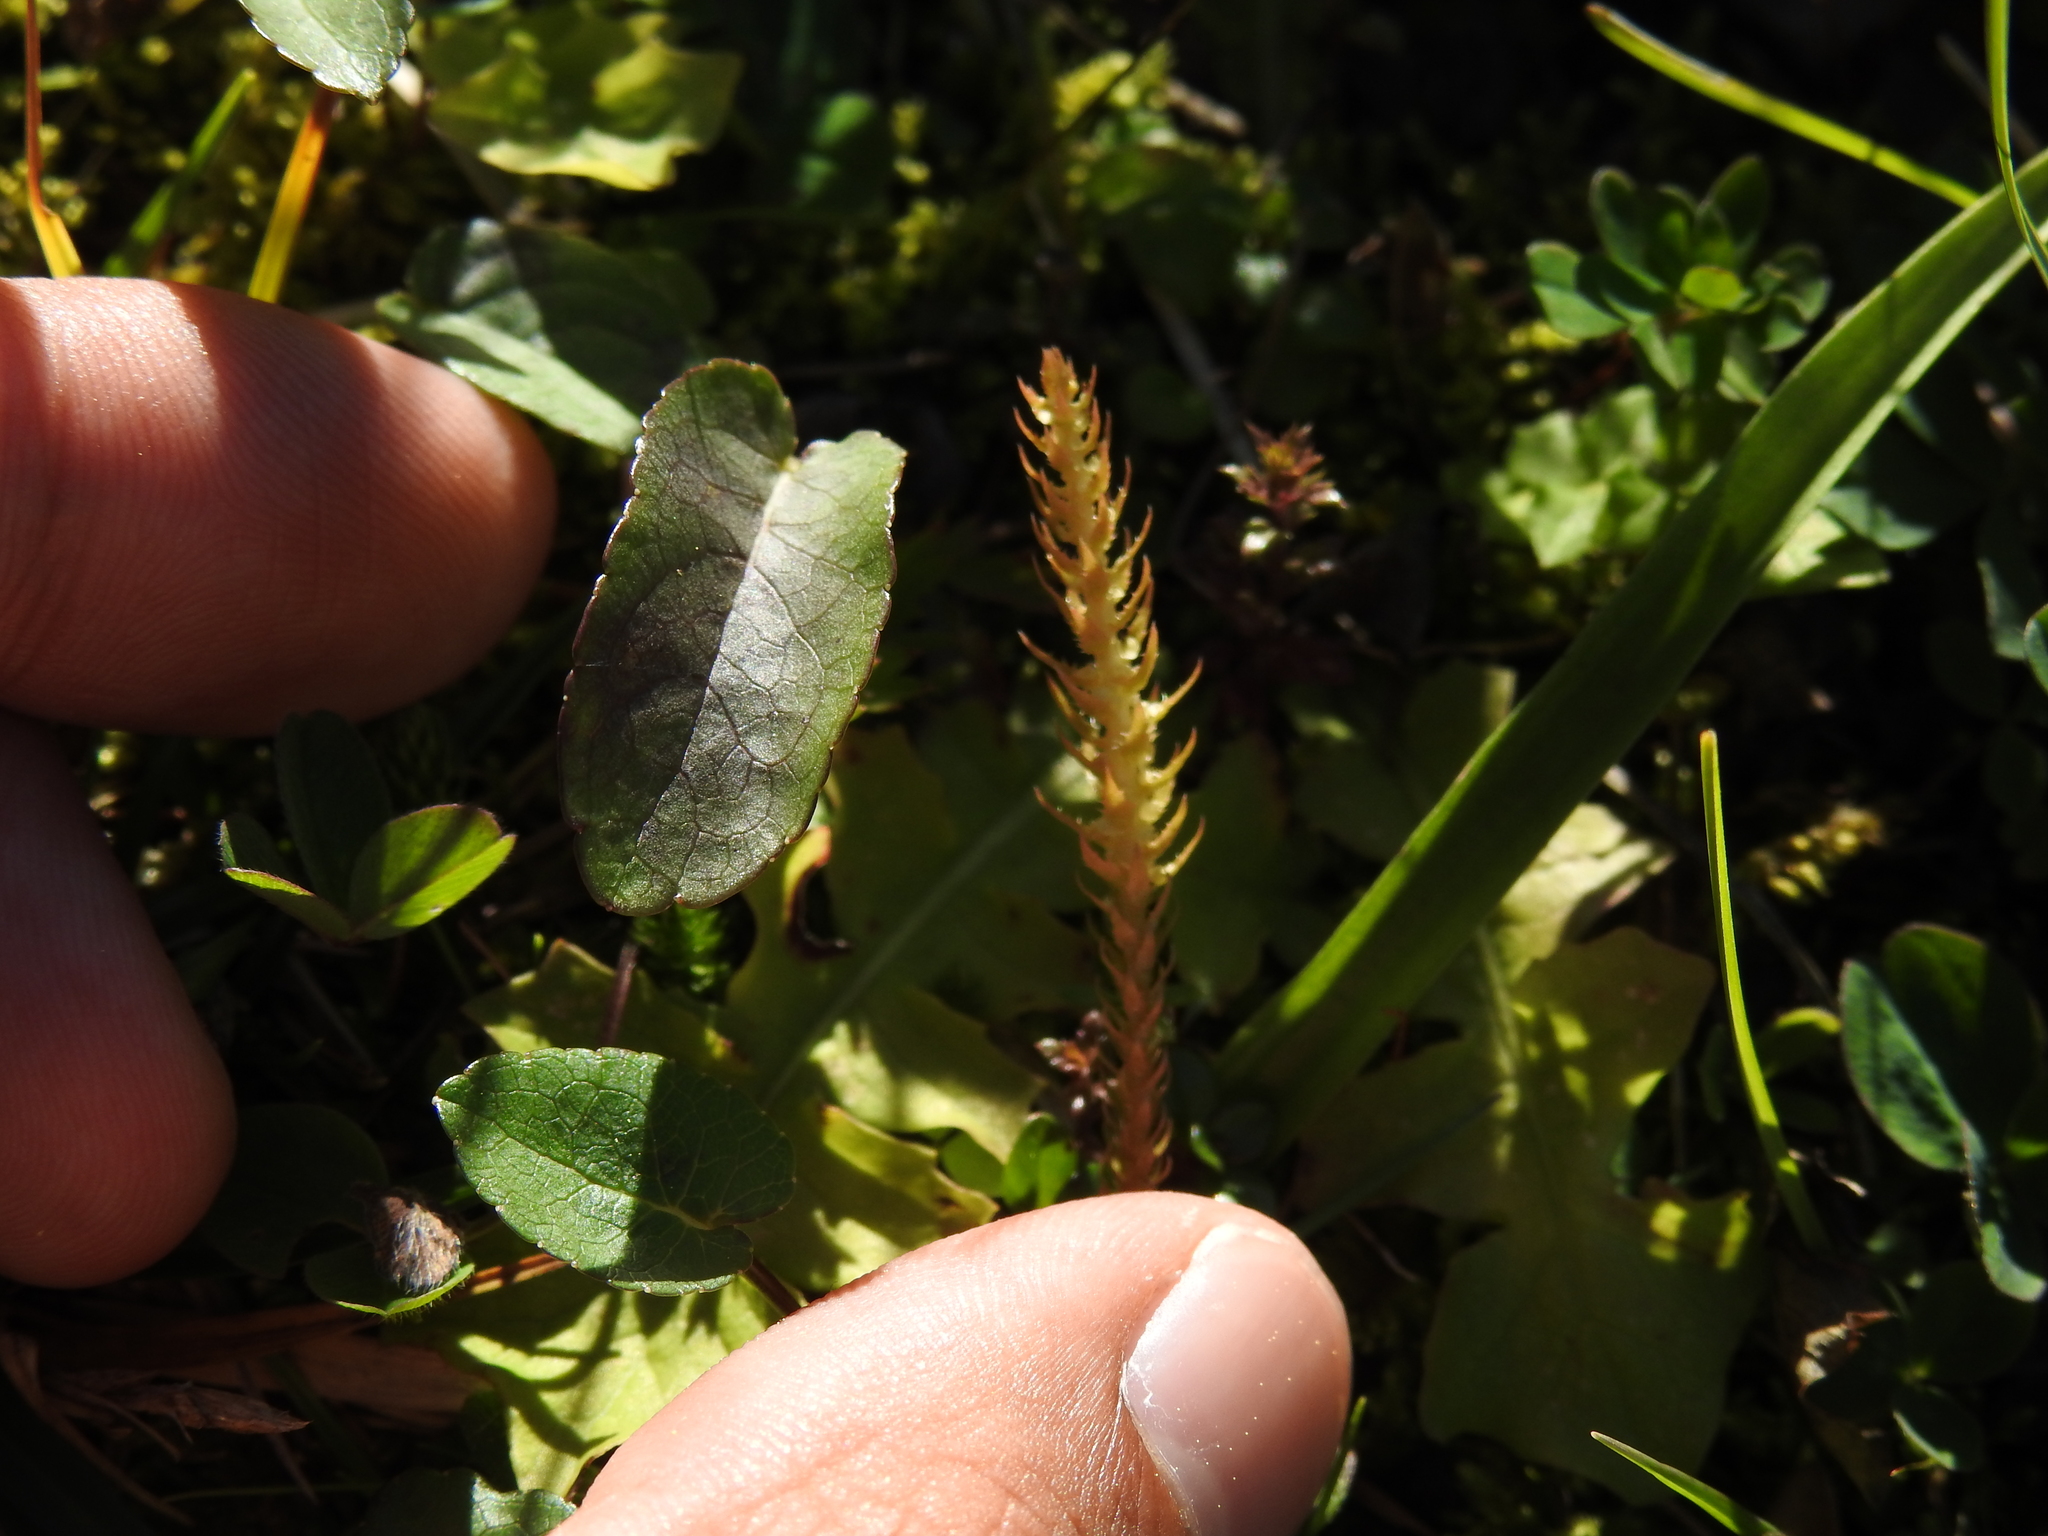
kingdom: Plantae
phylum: Tracheophyta
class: Lycopodiopsida
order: Selaginellales
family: Selaginellaceae
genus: Selaginella
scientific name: Selaginella selaginoides
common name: Prickly mountain-moss
